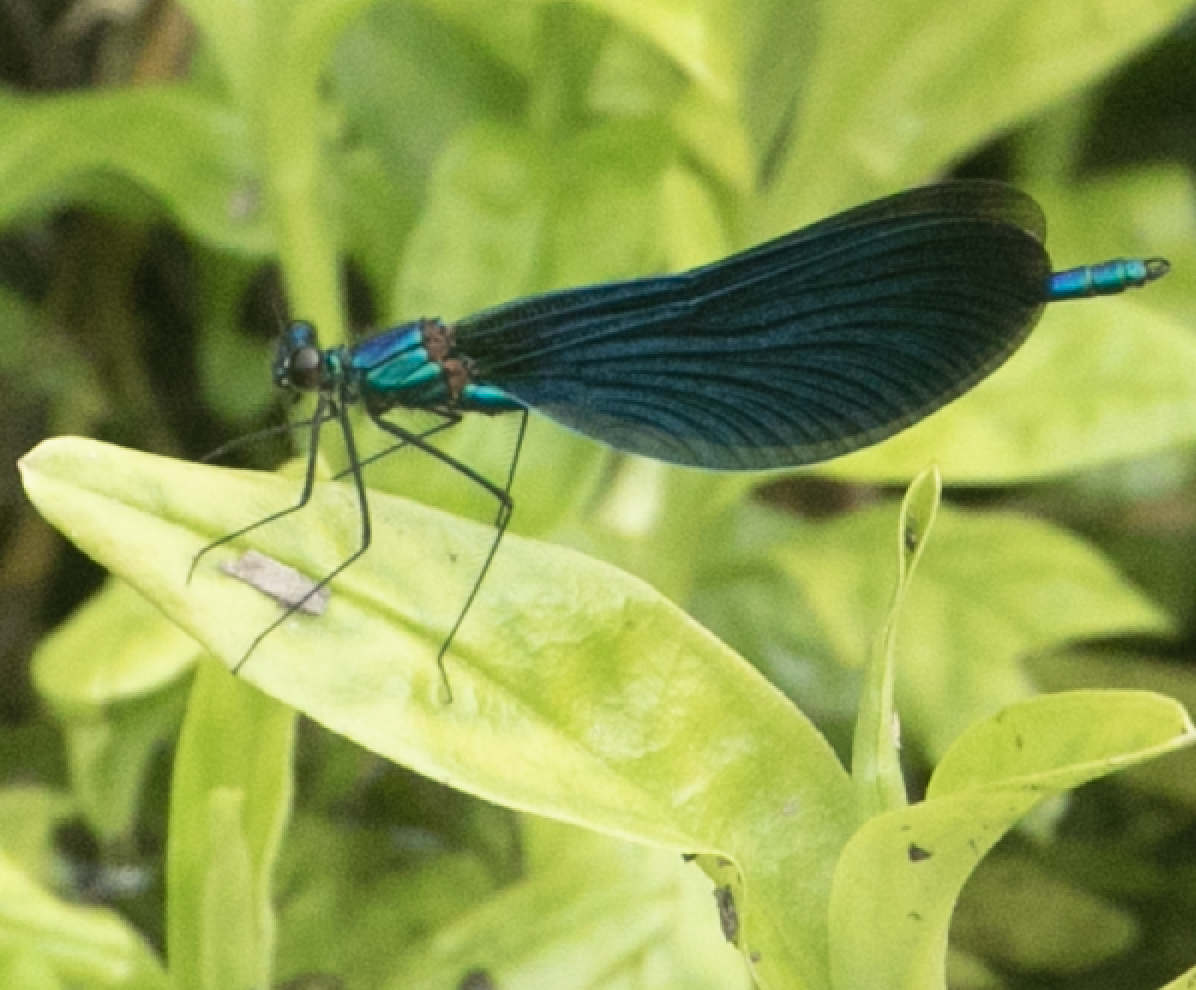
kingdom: Animalia
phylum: Arthropoda
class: Insecta
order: Odonata
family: Calopterygidae
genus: Calopteryx
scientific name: Calopteryx virgo
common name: Beautiful demoiselle
